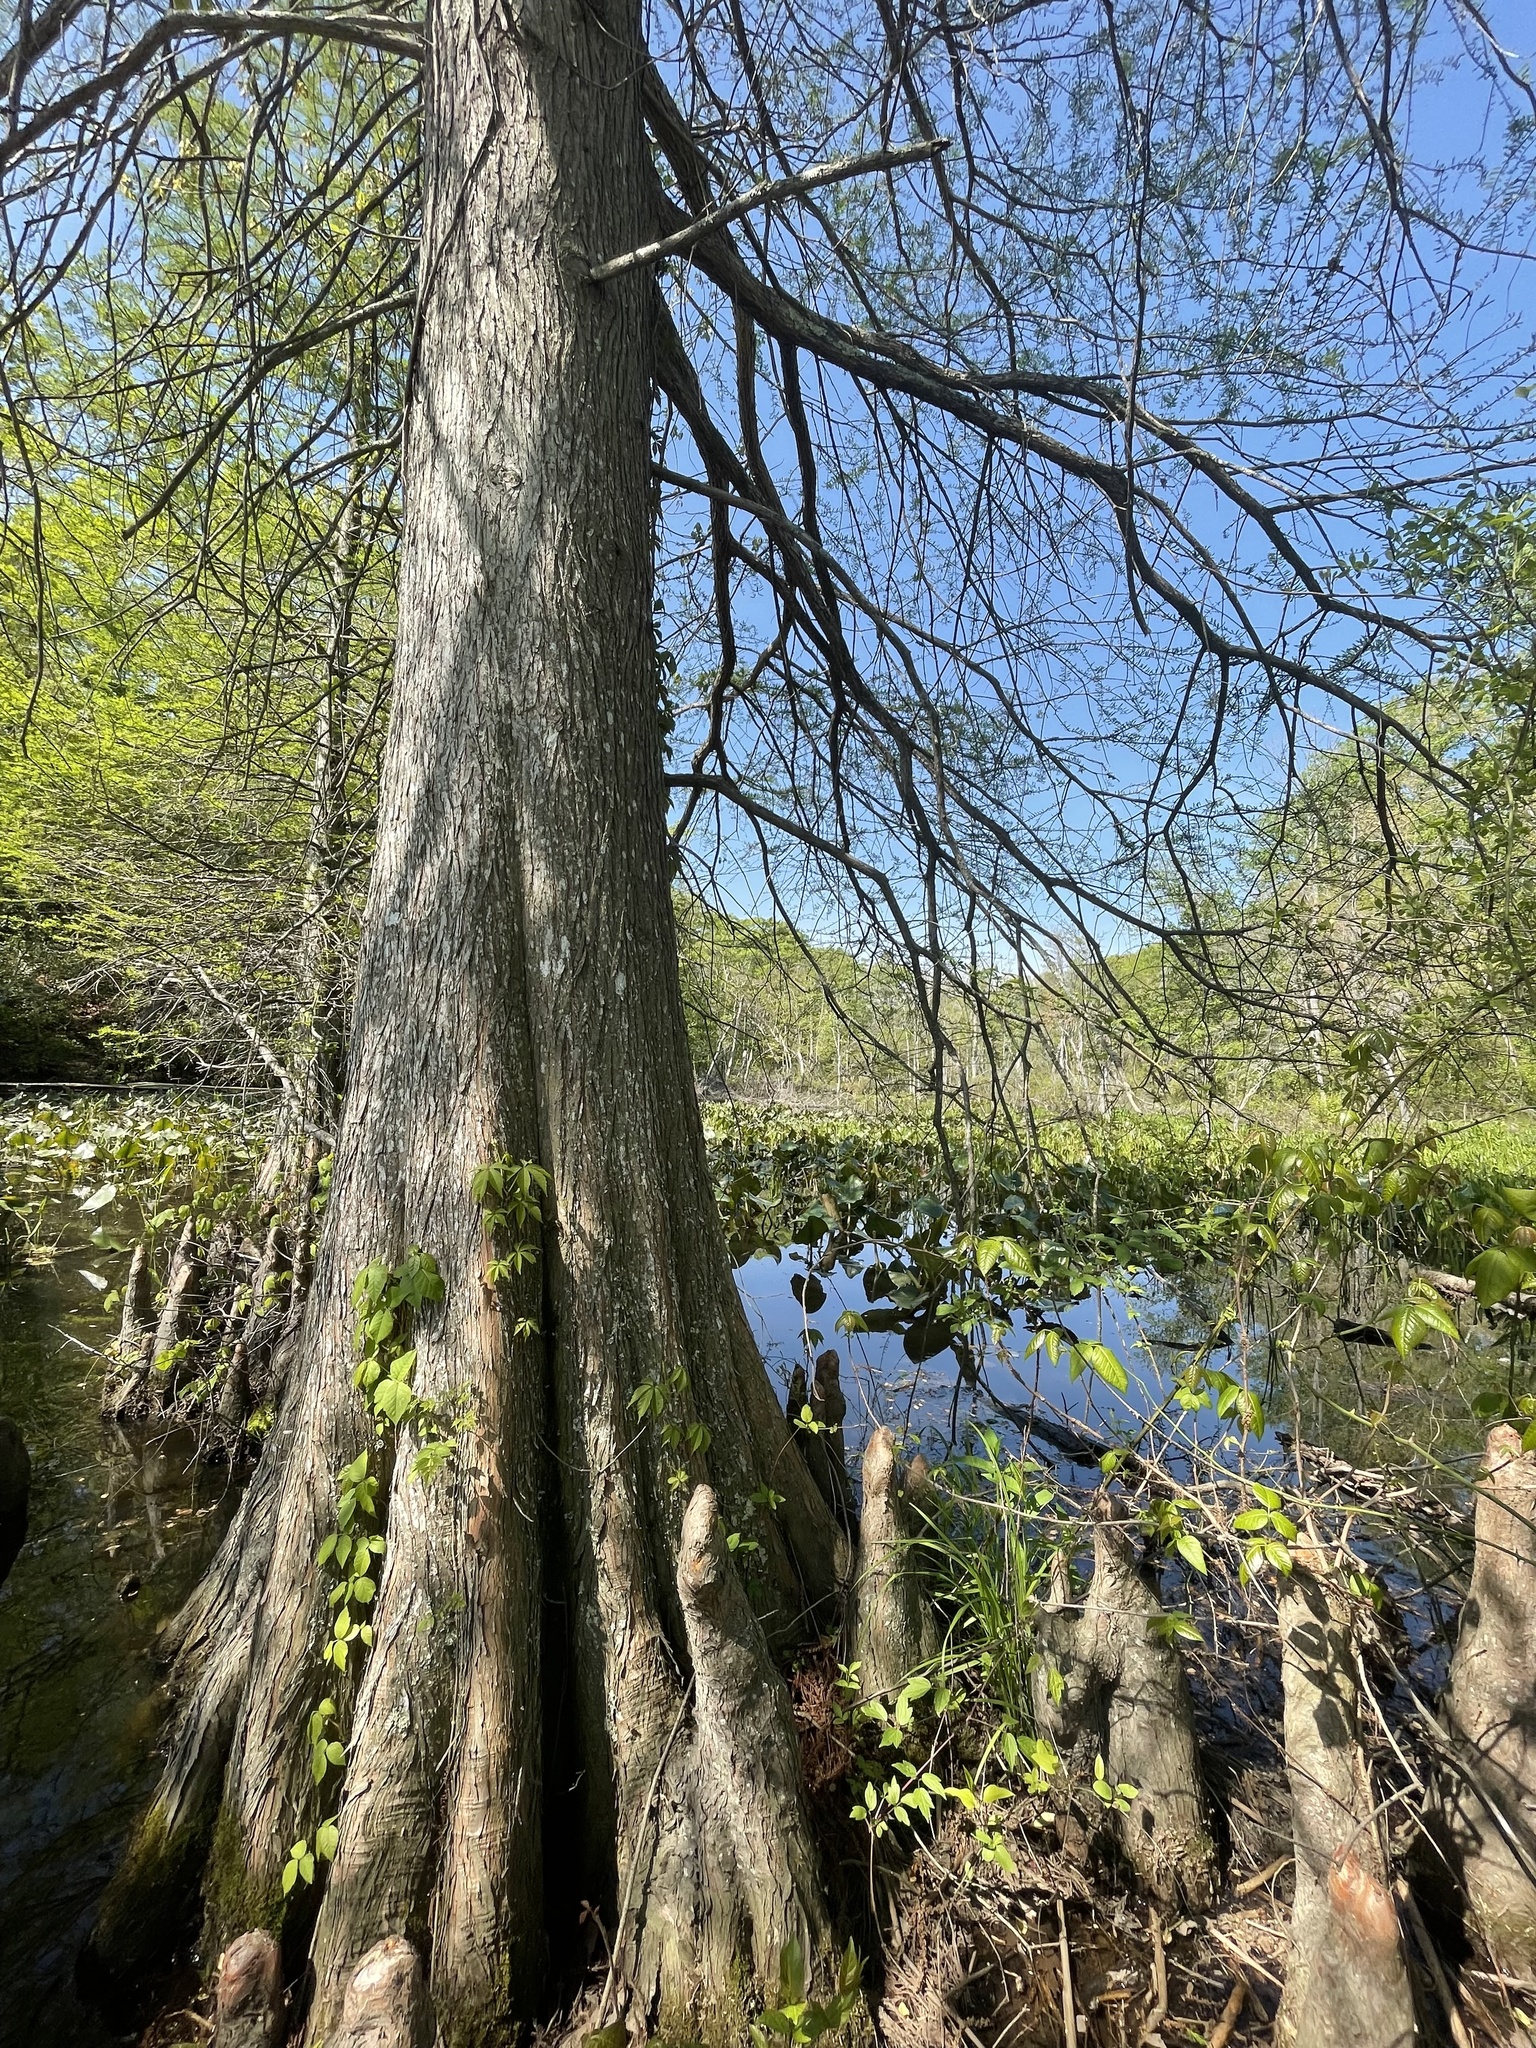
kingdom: Plantae
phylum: Tracheophyta
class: Pinopsida
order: Pinales
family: Cupressaceae
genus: Taxodium
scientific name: Taxodium distichum
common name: Bald cypress
